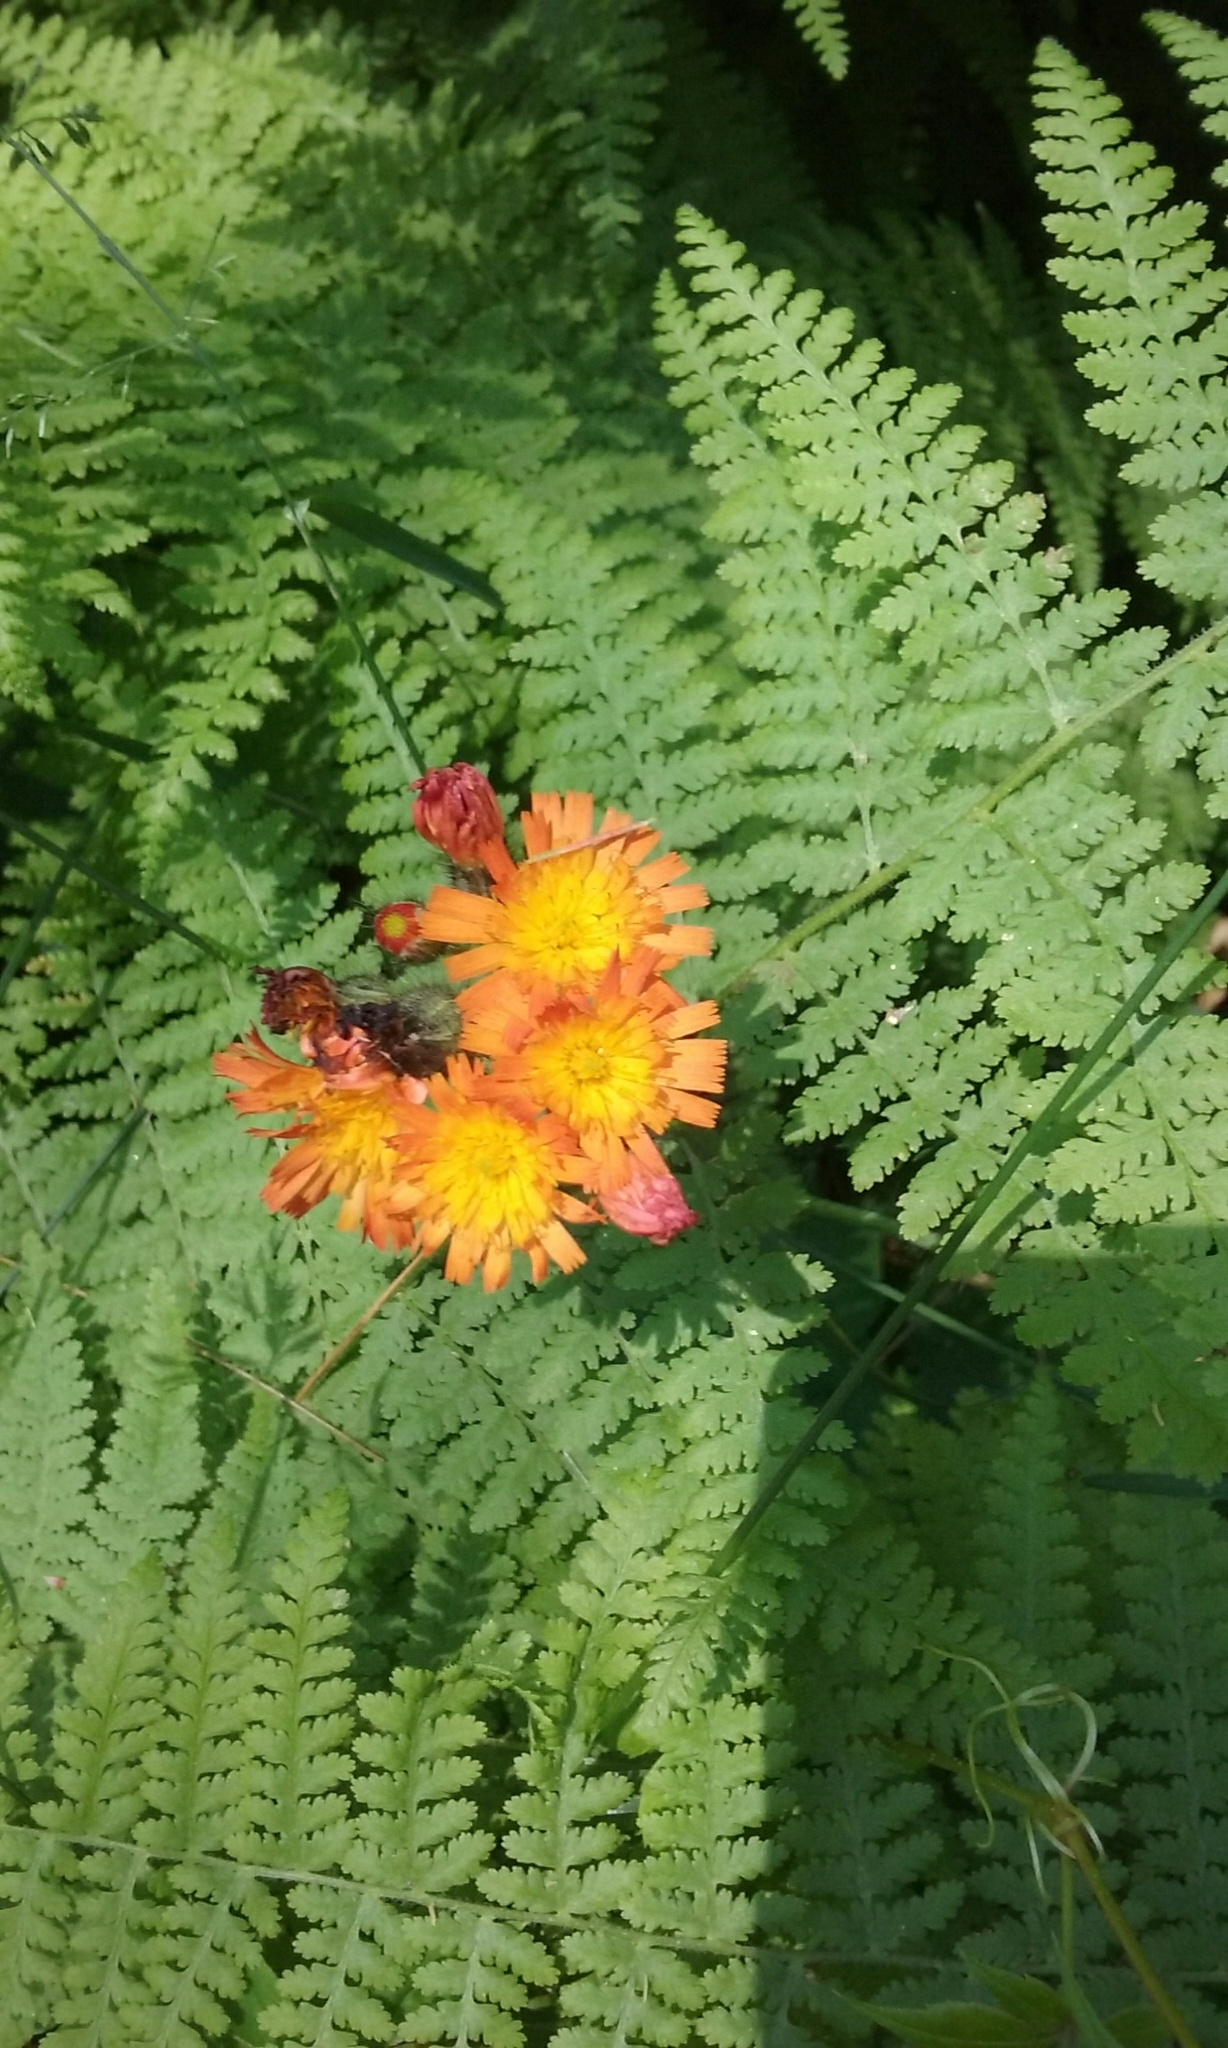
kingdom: Plantae
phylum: Tracheophyta
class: Magnoliopsida
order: Asterales
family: Asteraceae
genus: Pilosella
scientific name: Pilosella aurantiaca
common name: Fox-and-cubs
